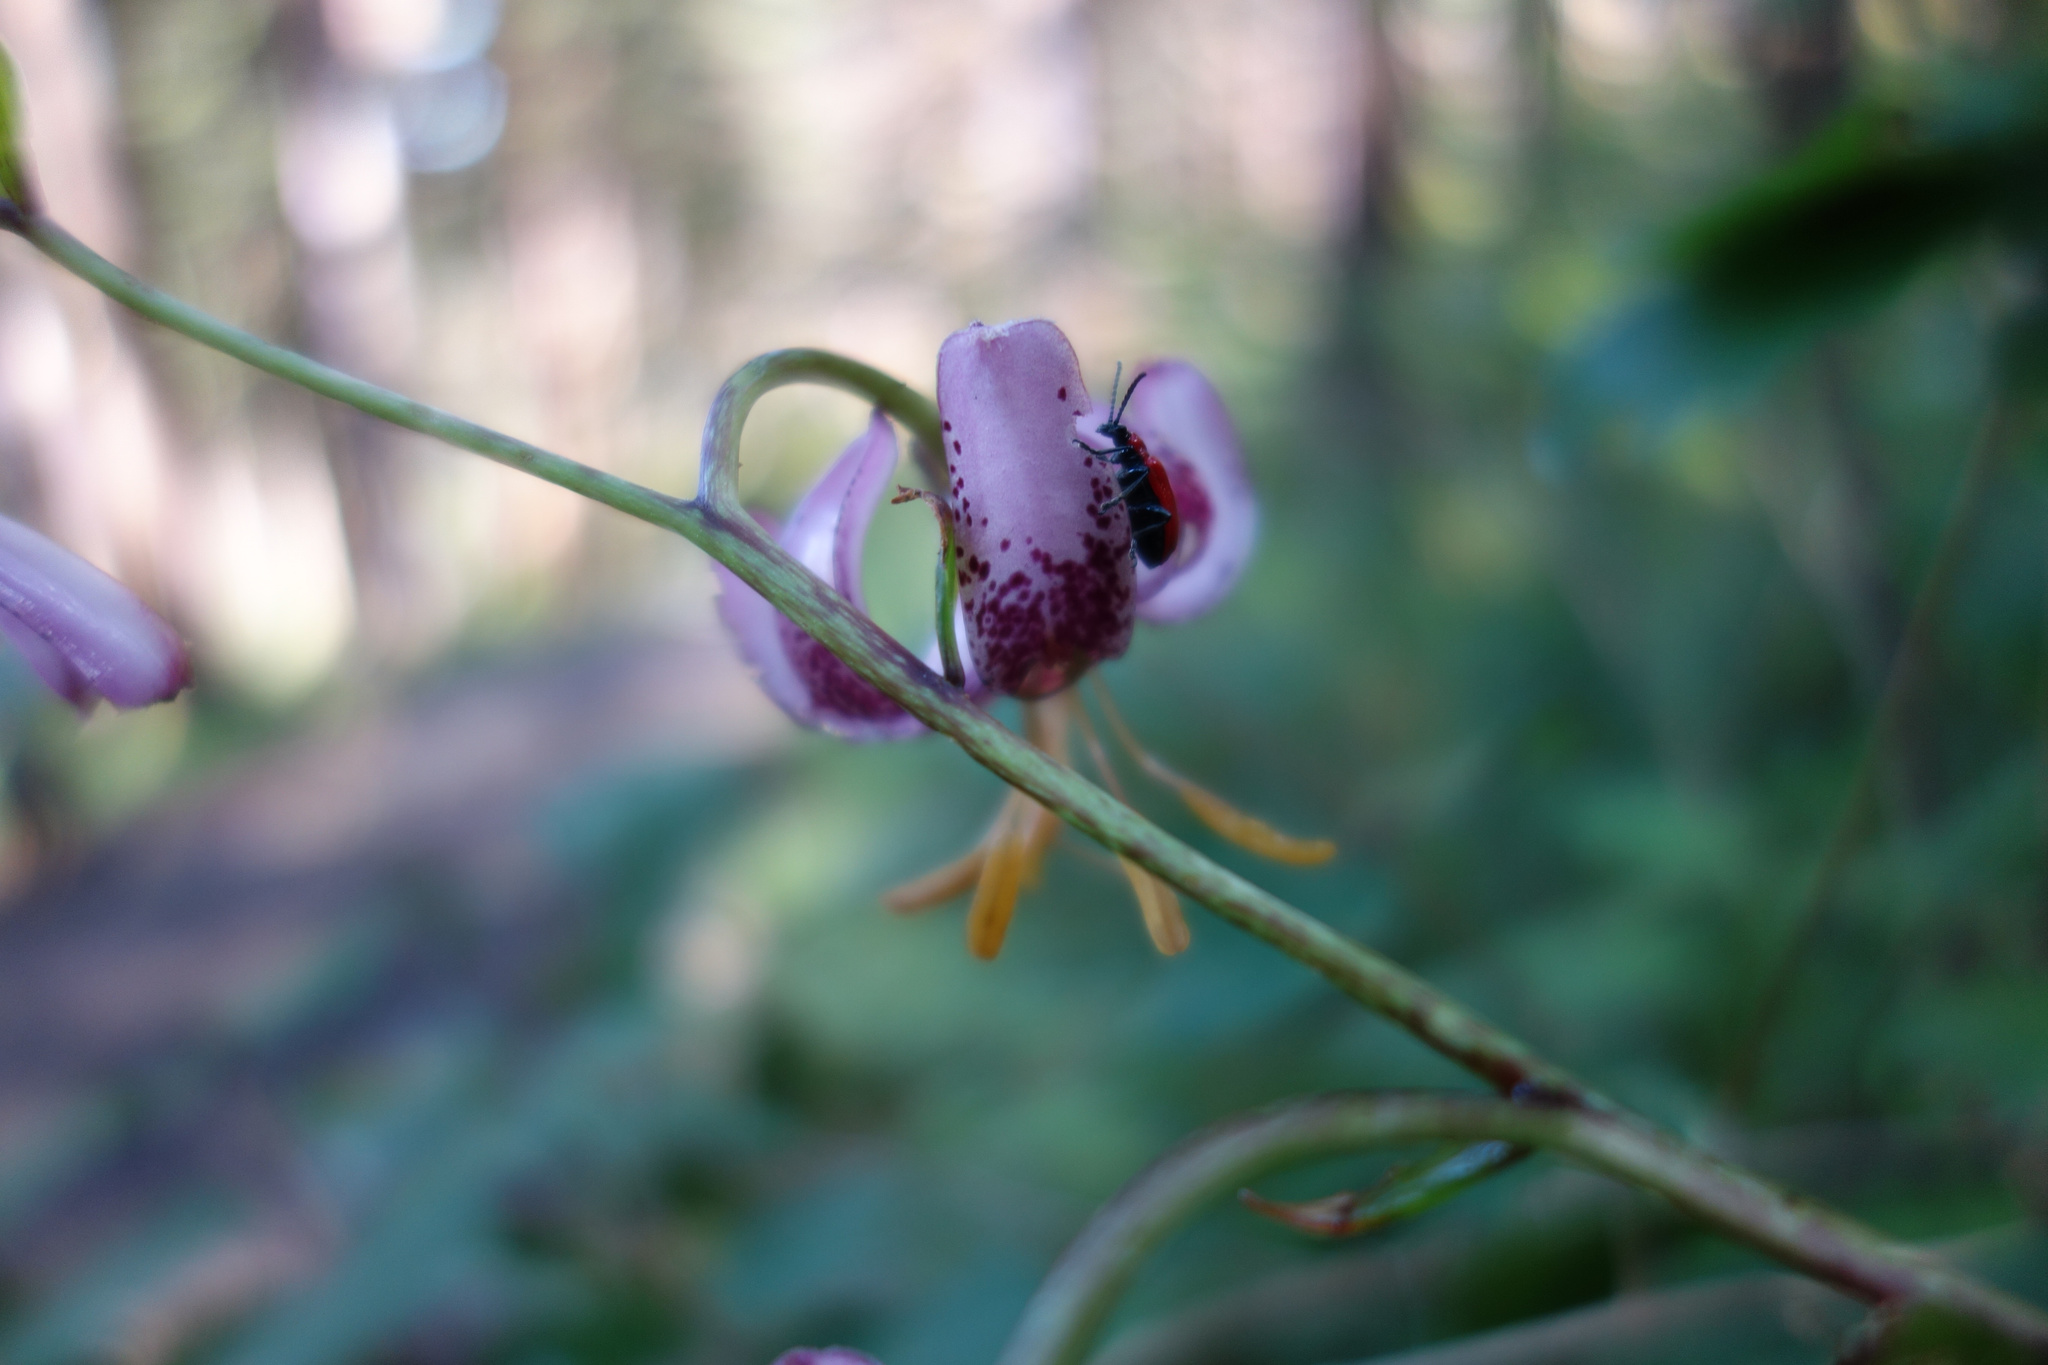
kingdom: Animalia
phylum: Arthropoda
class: Insecta
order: Coleoptera
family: Chrysomelidae
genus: Lilioceris
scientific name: Lilioceris lilii
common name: Lily beetle
